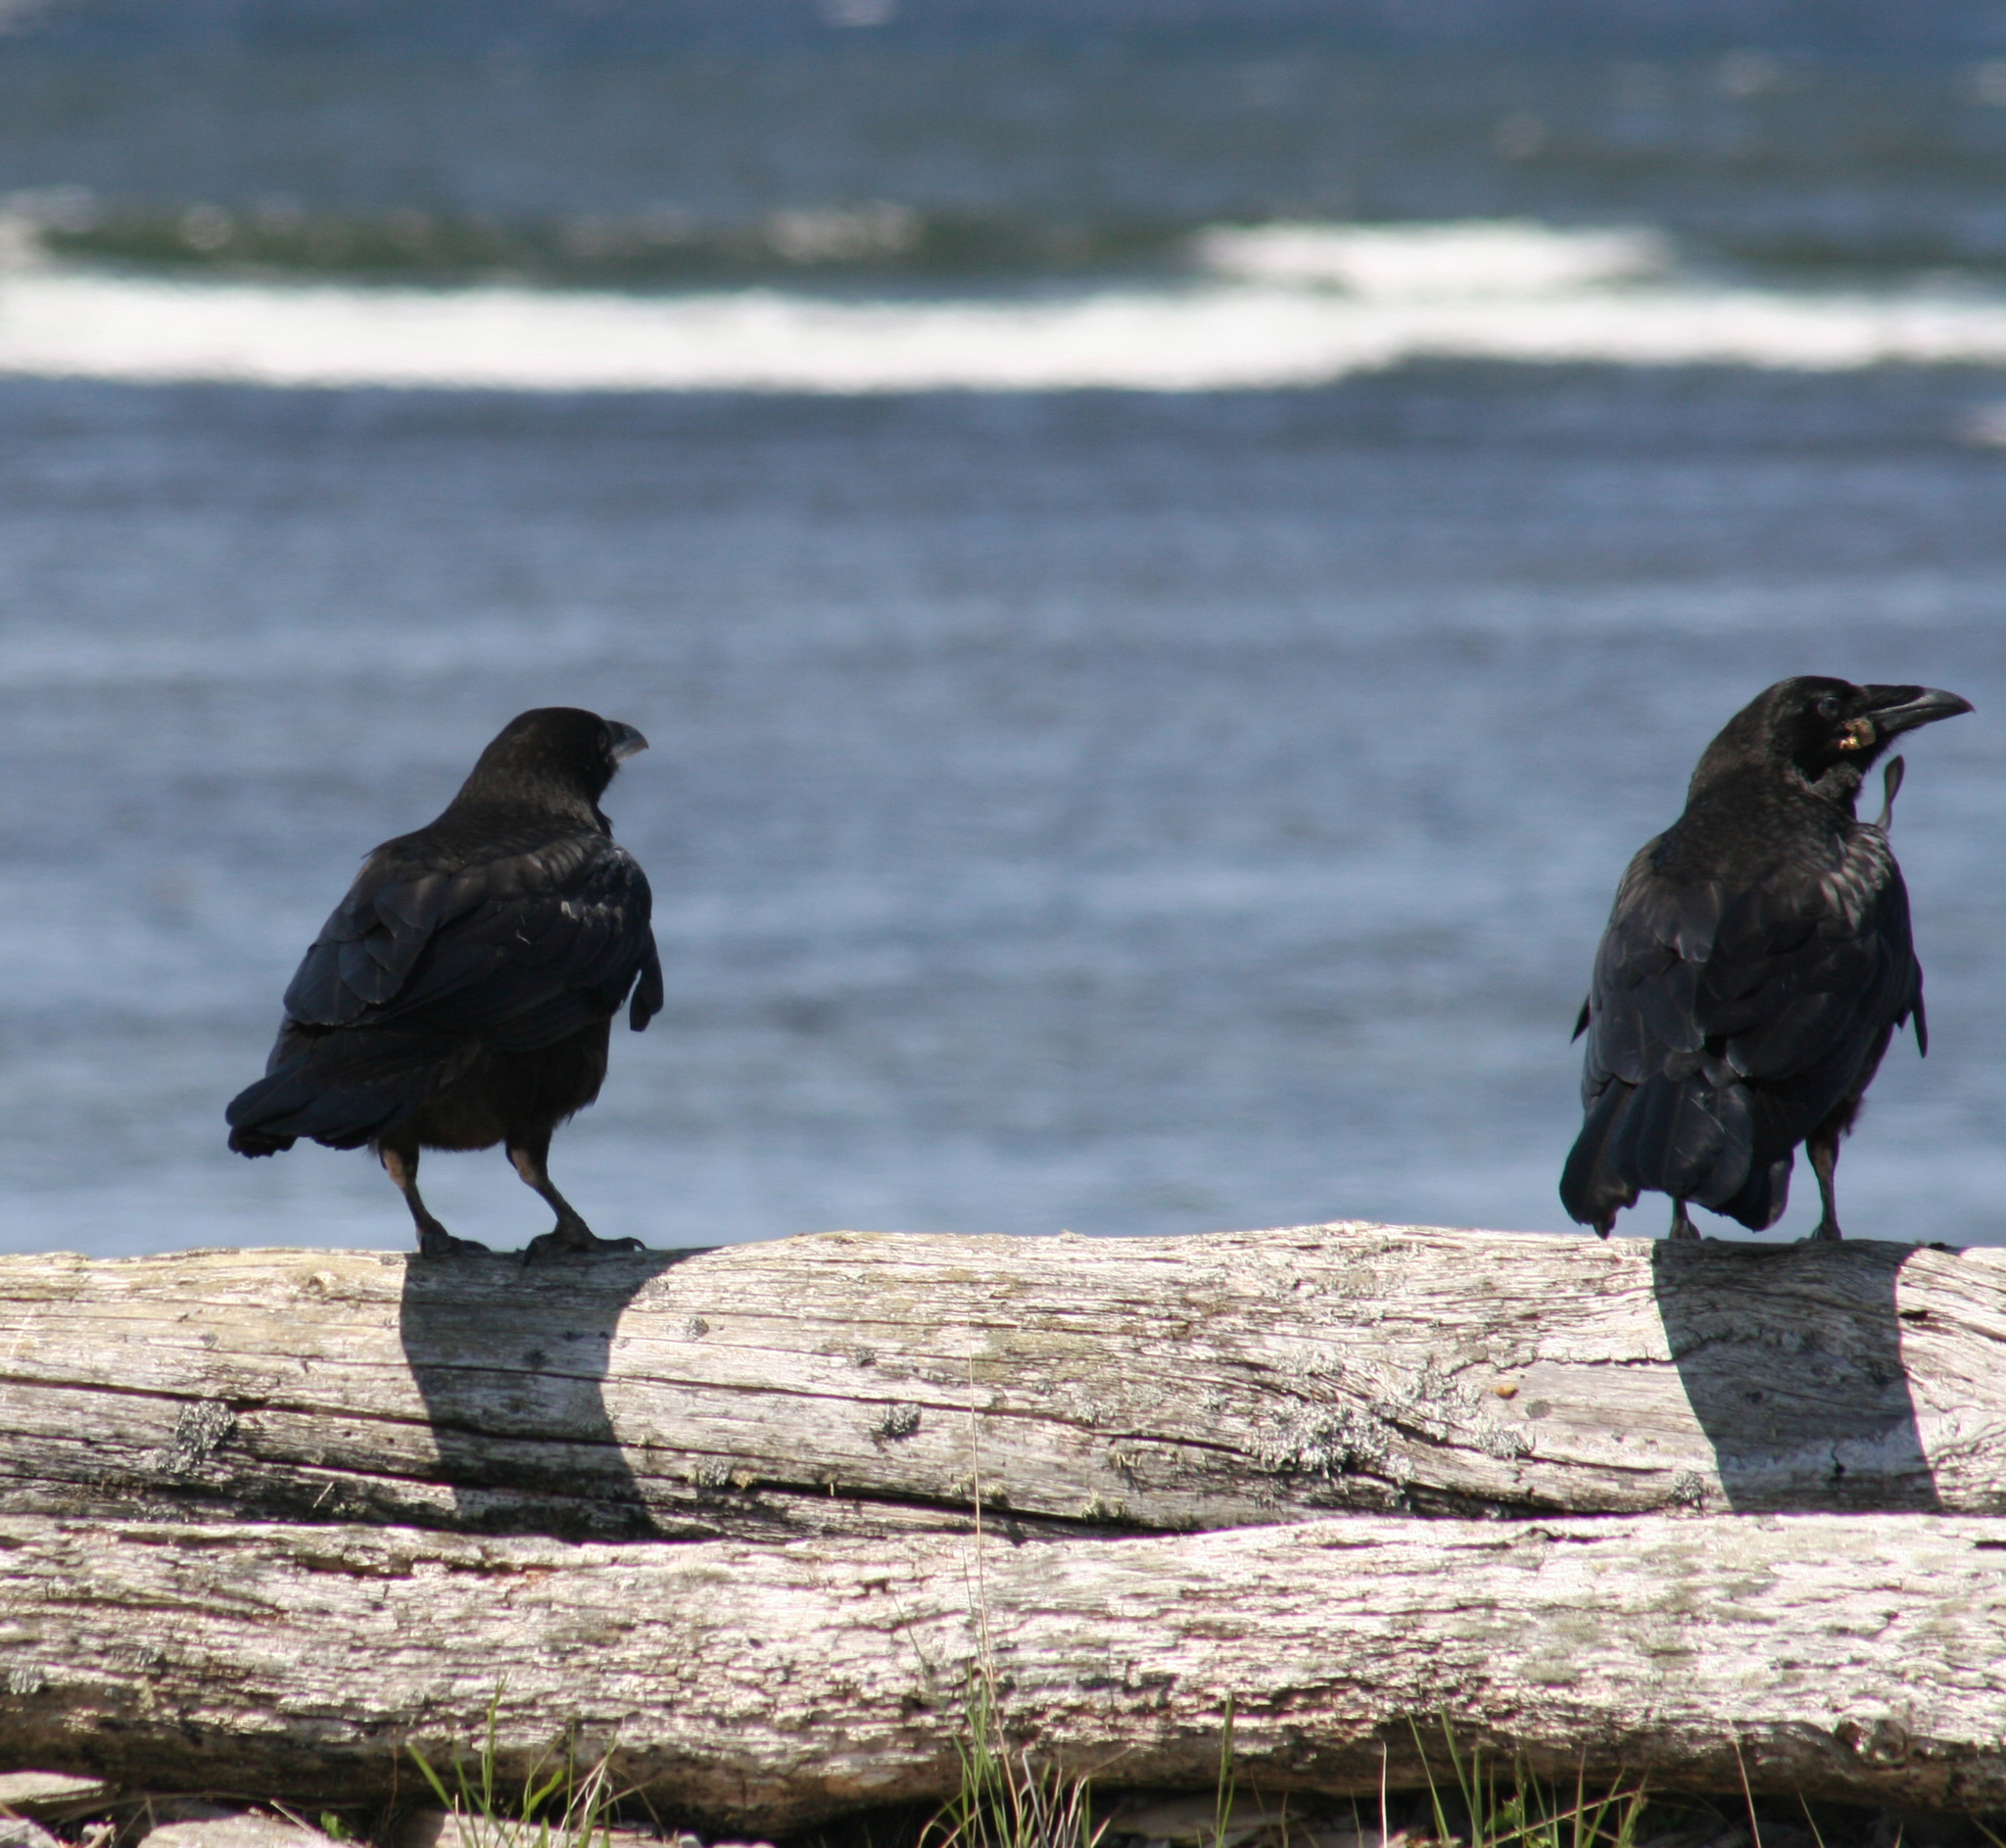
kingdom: Animalia
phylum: Chordata
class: Aves
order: Passeriformes
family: Corvidae
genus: Corvus
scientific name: Corvus corax
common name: Common raven
